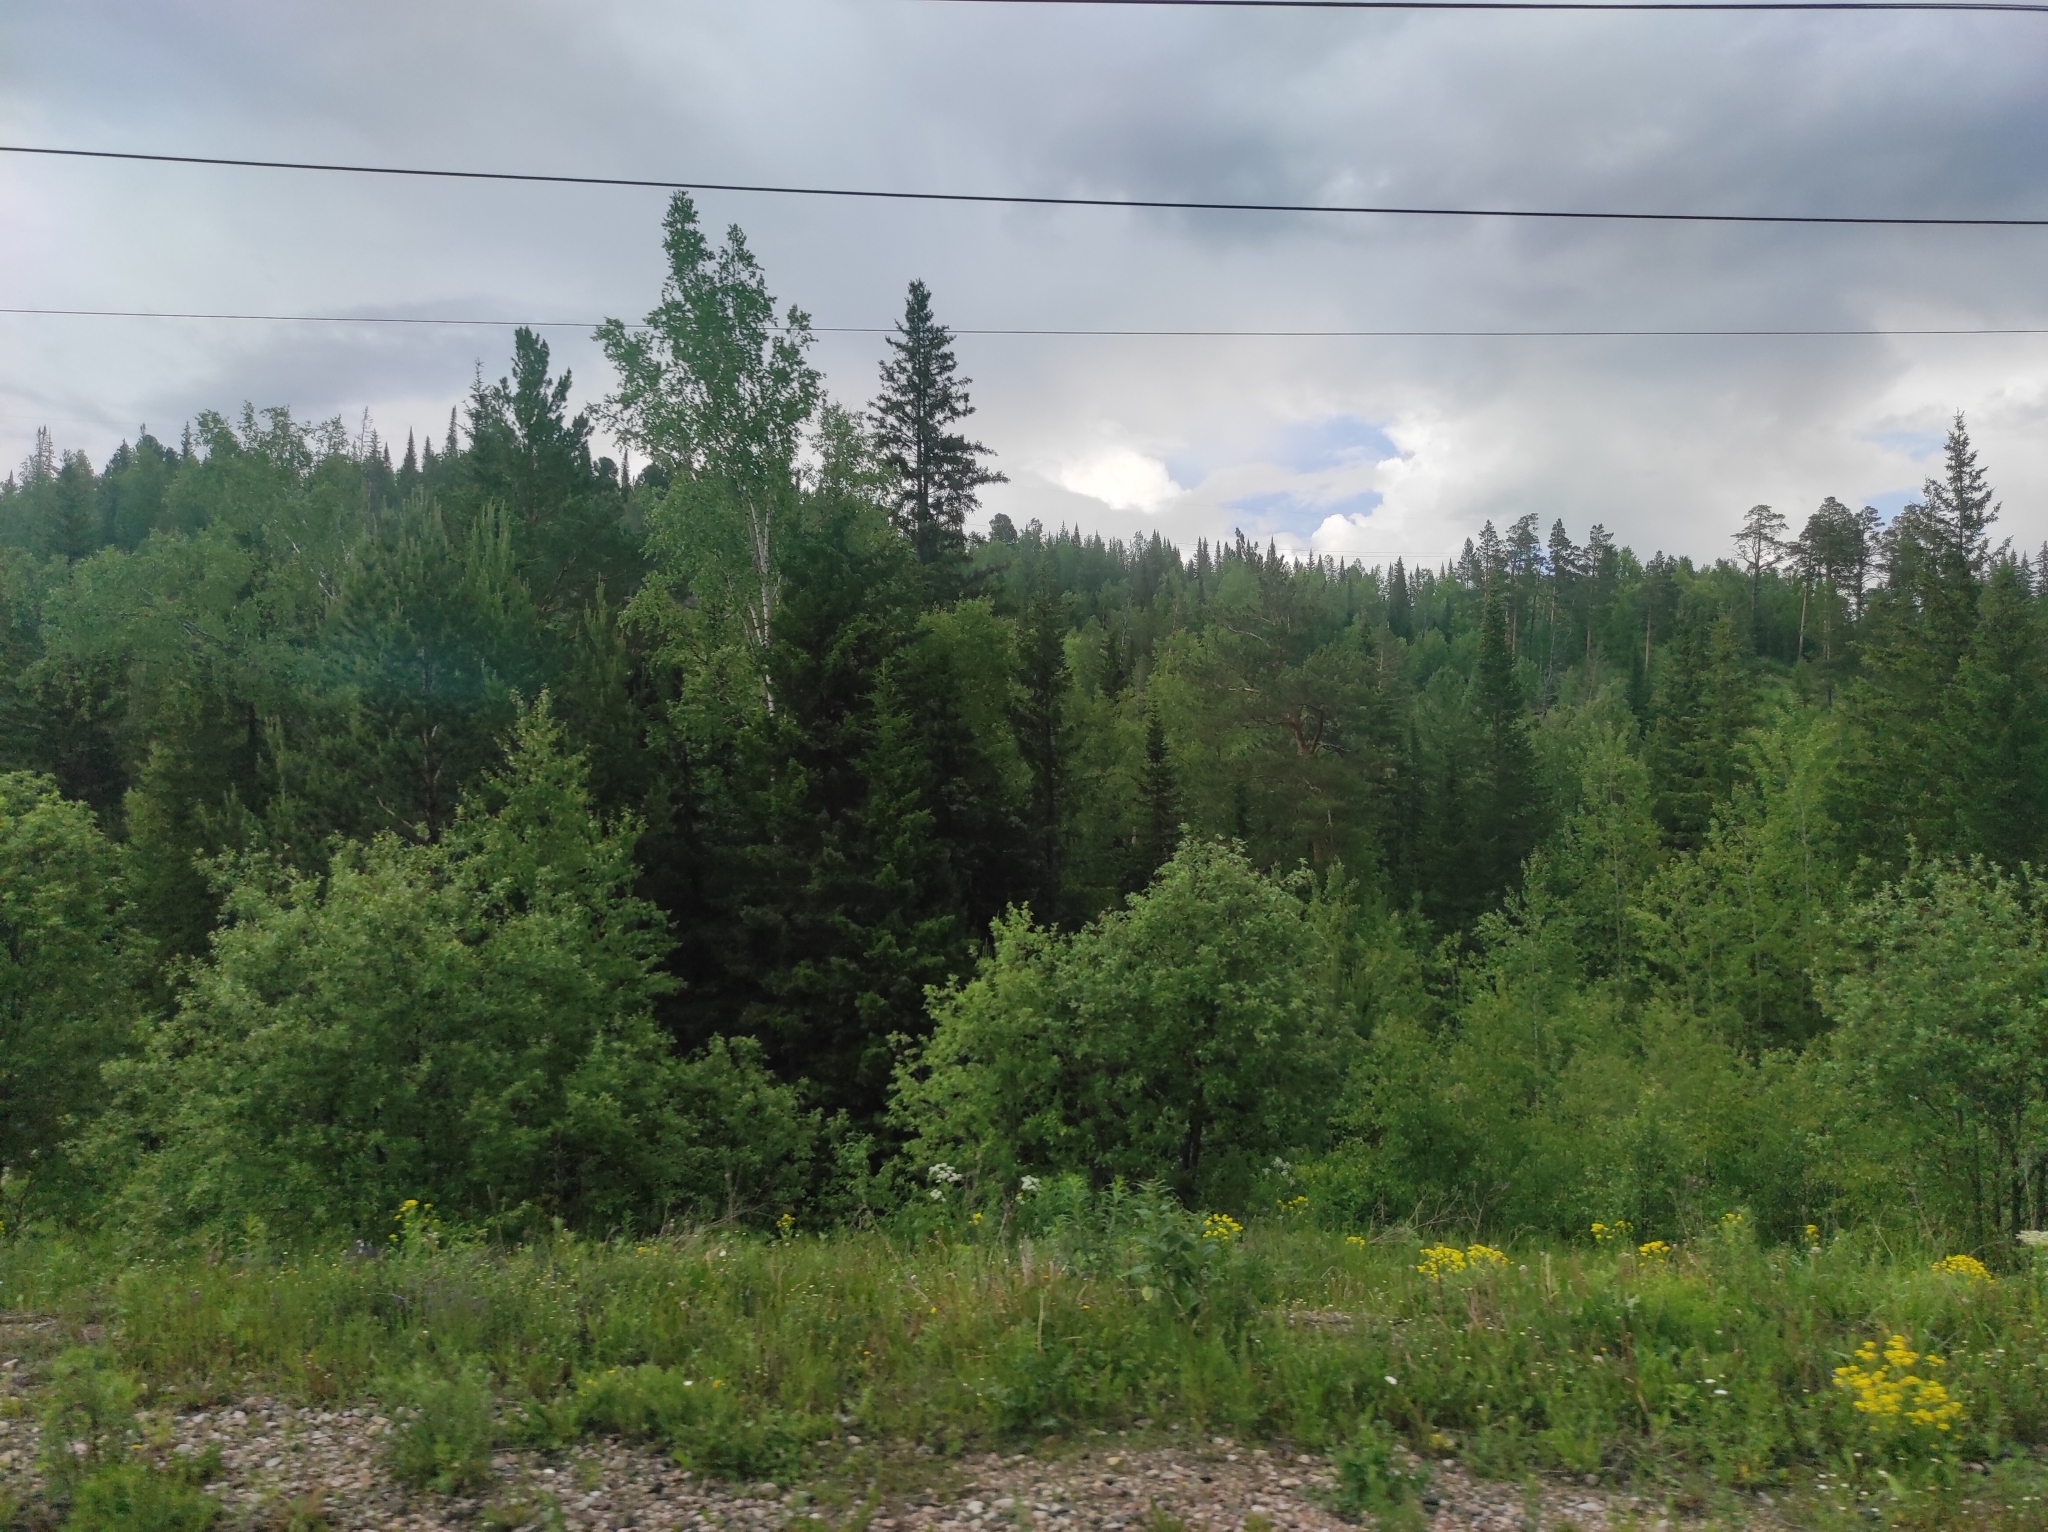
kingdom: Plantae
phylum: Tracheophyta
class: Pinopsida
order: Pinales
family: Pinaceae
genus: Picea
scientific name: Picea obovata
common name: Siberian spruce
